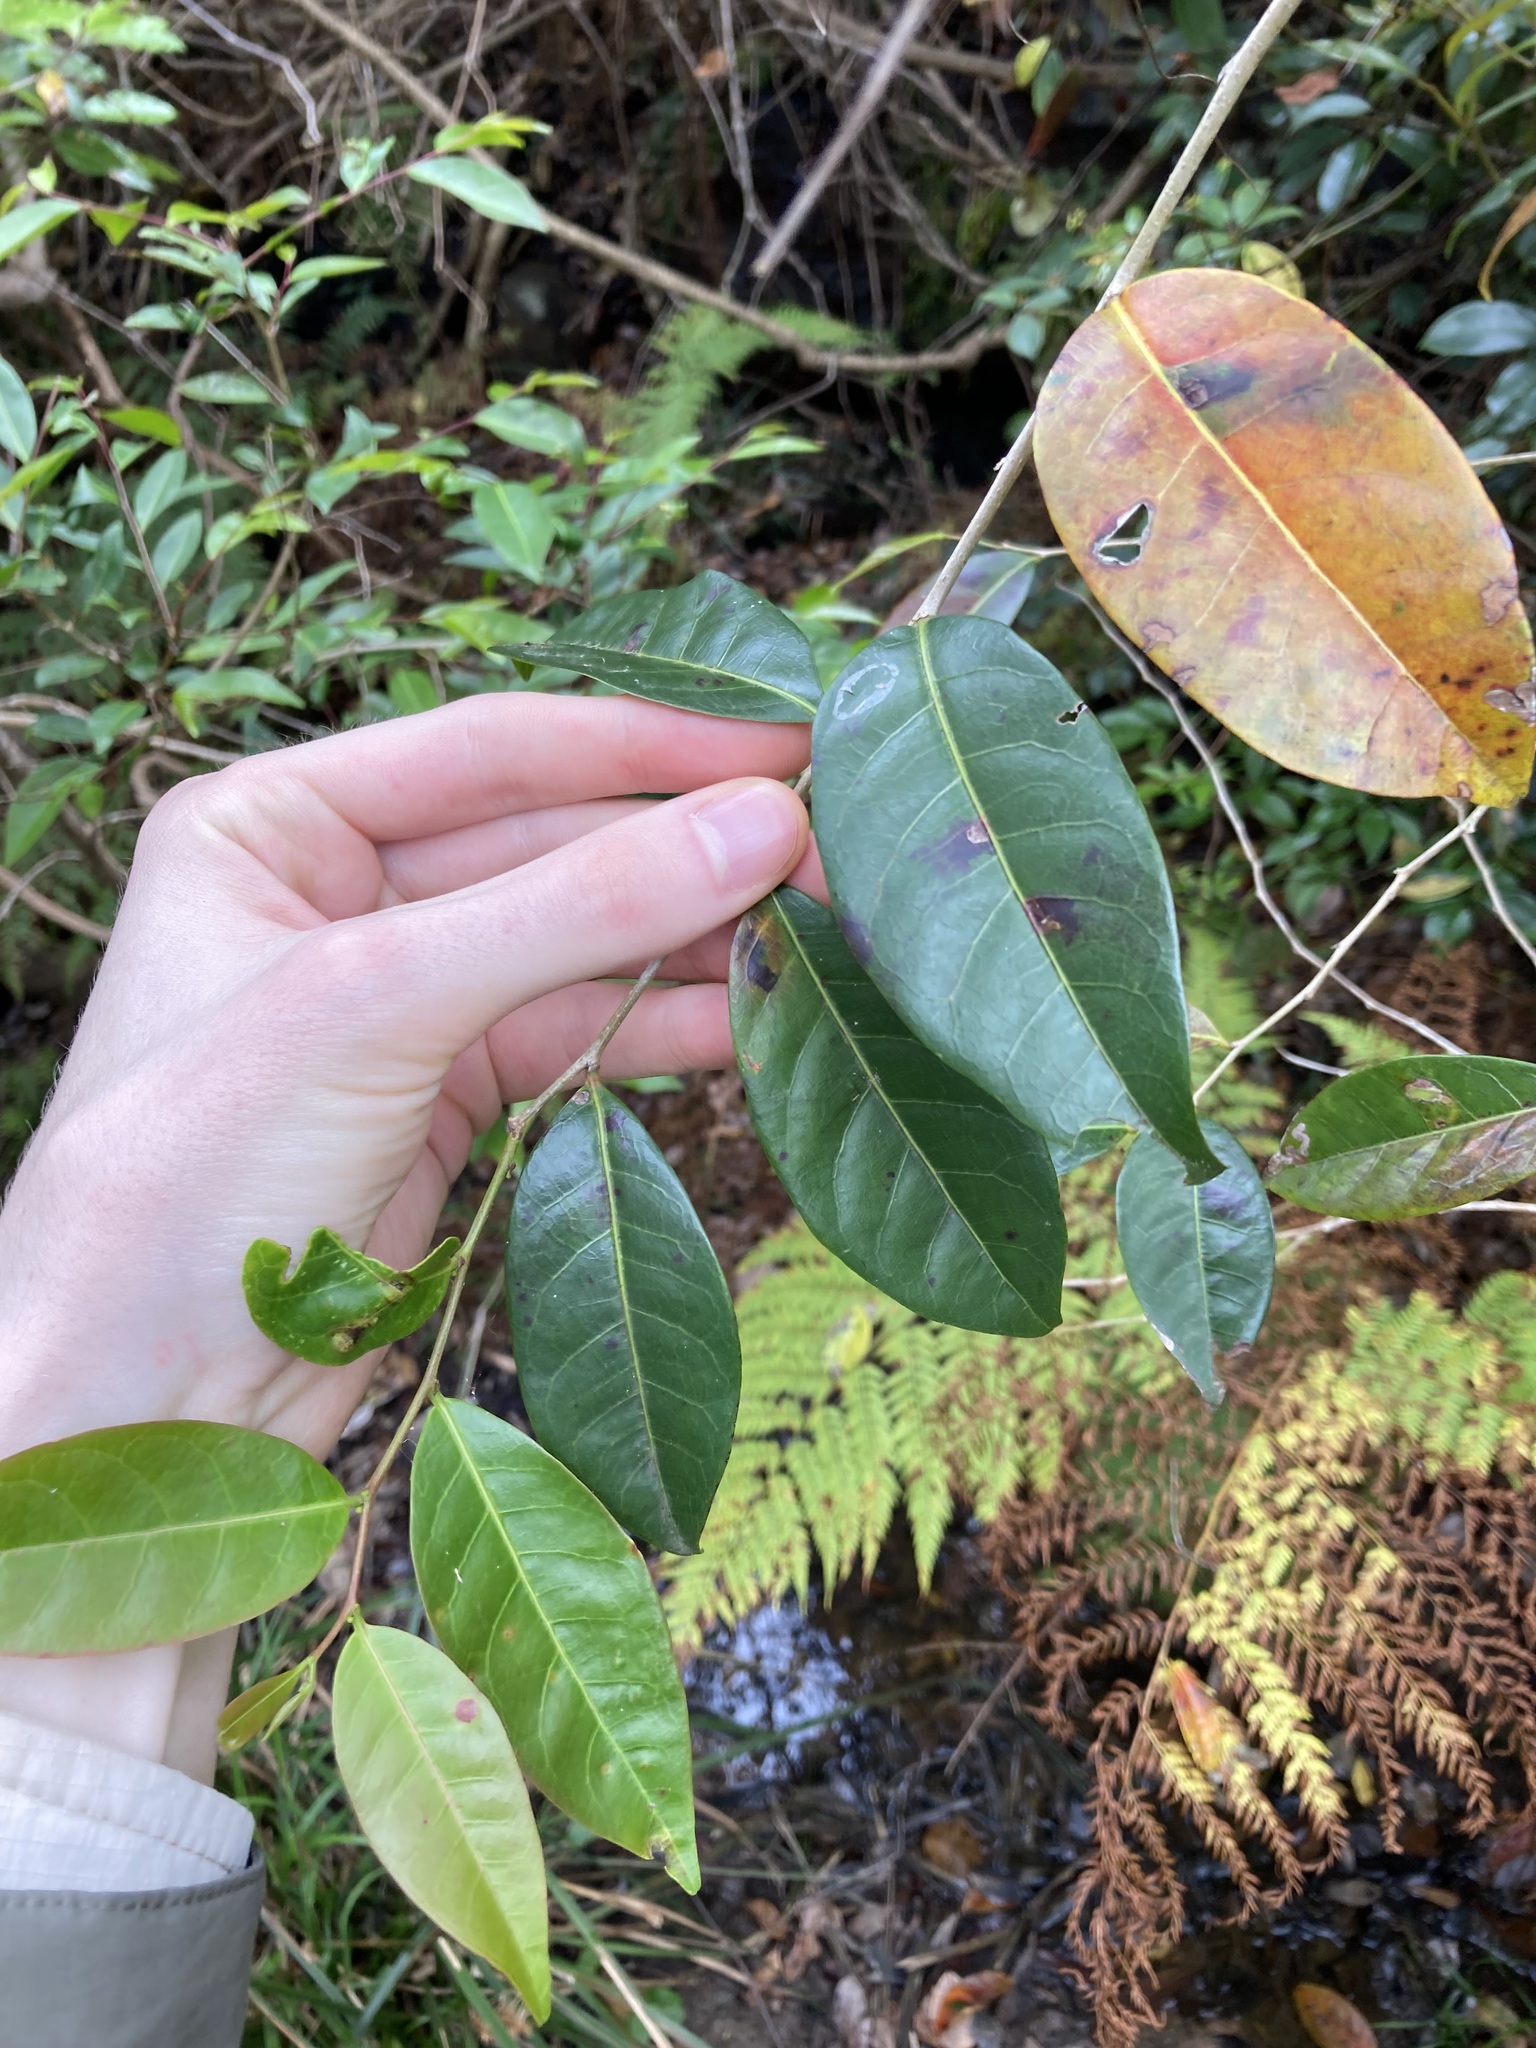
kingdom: Plantae
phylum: Tracheophyta
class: Magnoliopsida
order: Malpighiales
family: Phyllanthaceae
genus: Glochidion
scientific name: Glochidion ferdinandi
